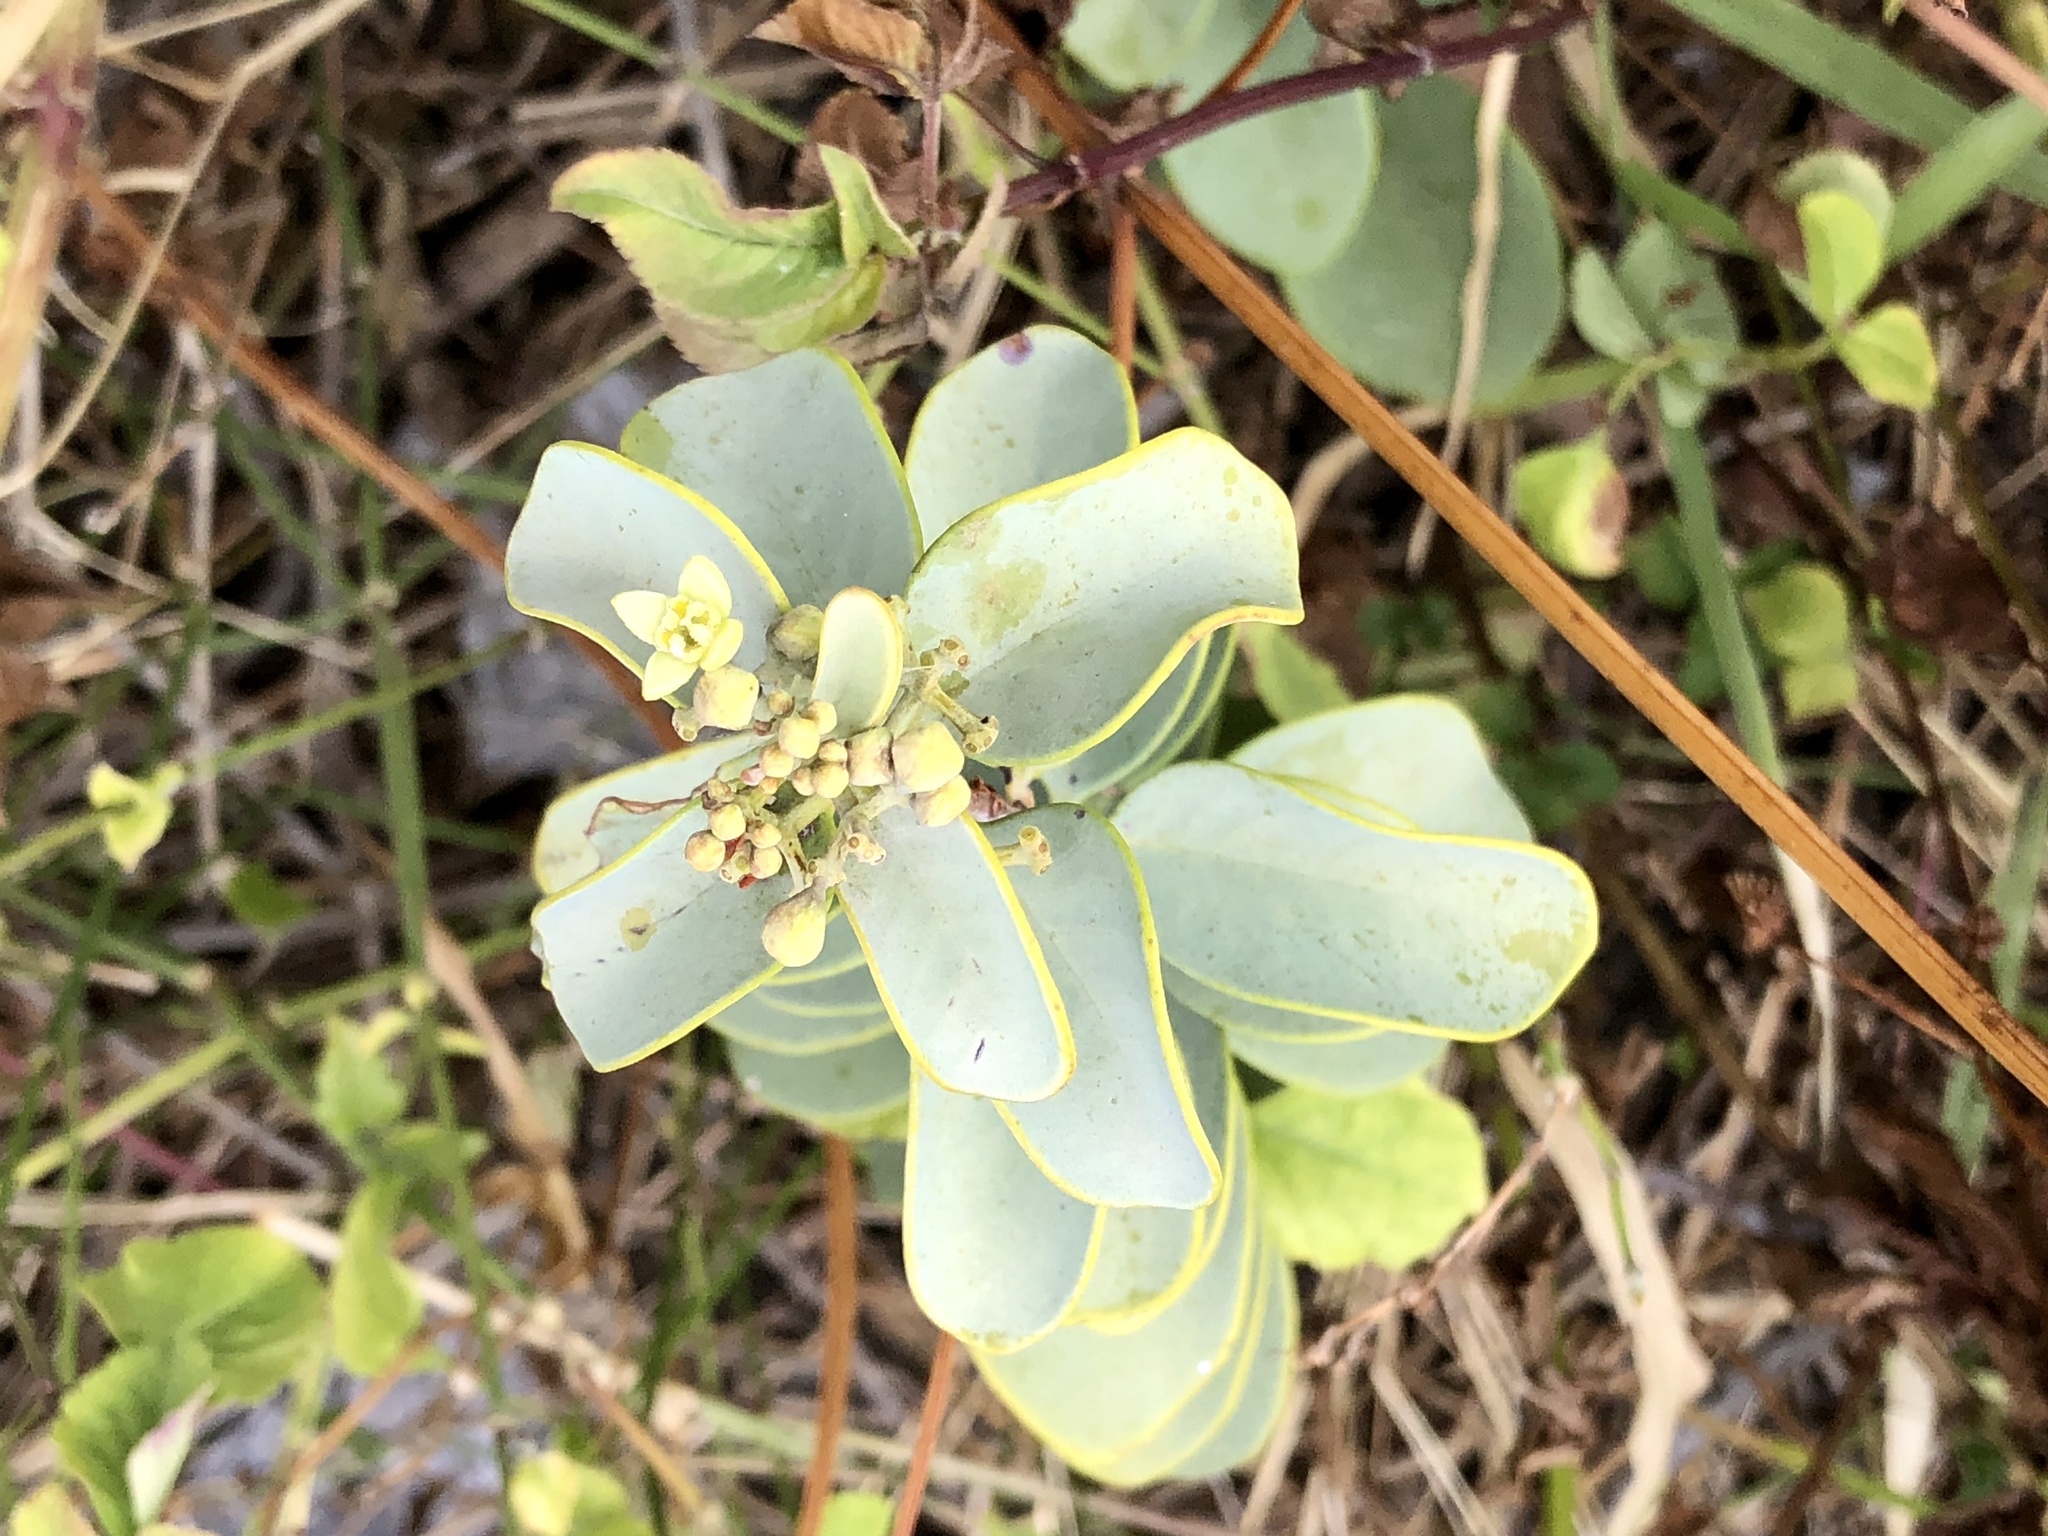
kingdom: Plantae
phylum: Tracheophyta
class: Magnoliopsida
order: Santalales
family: Santalaceae
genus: Santalum
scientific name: Santalum ellipticum
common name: Coast sandalwood
